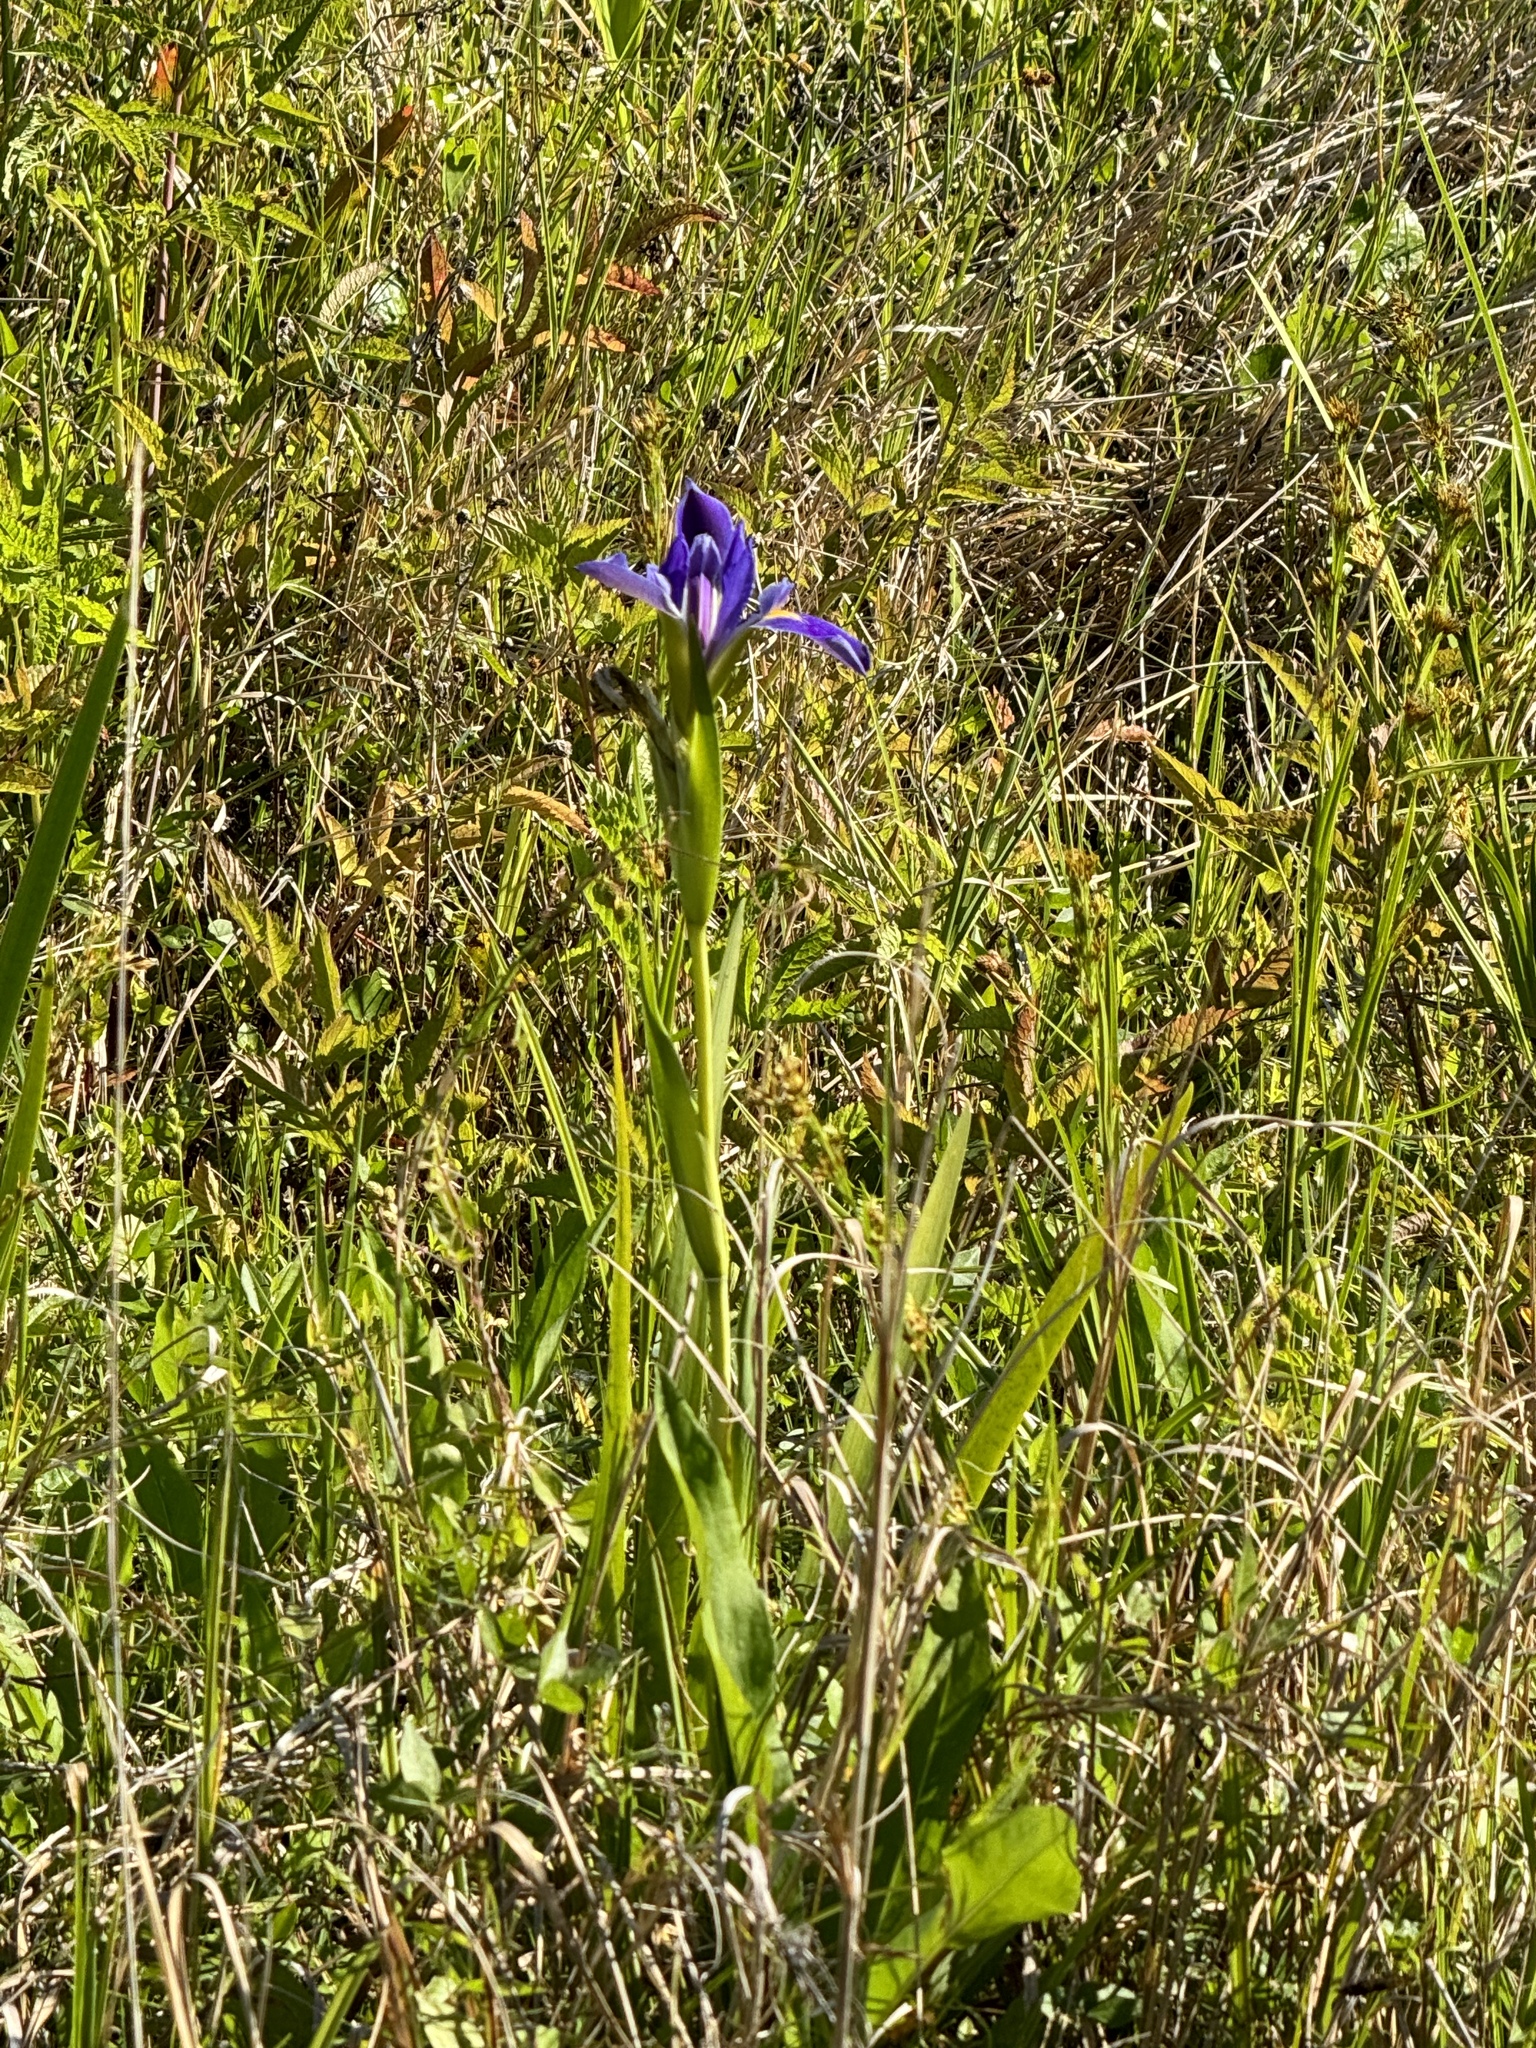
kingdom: Plantae
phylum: Tracheophyta
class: Liliopsida
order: Asparagales
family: Iridaceae
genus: Iris
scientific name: Iris savannarum
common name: Prairie iris
